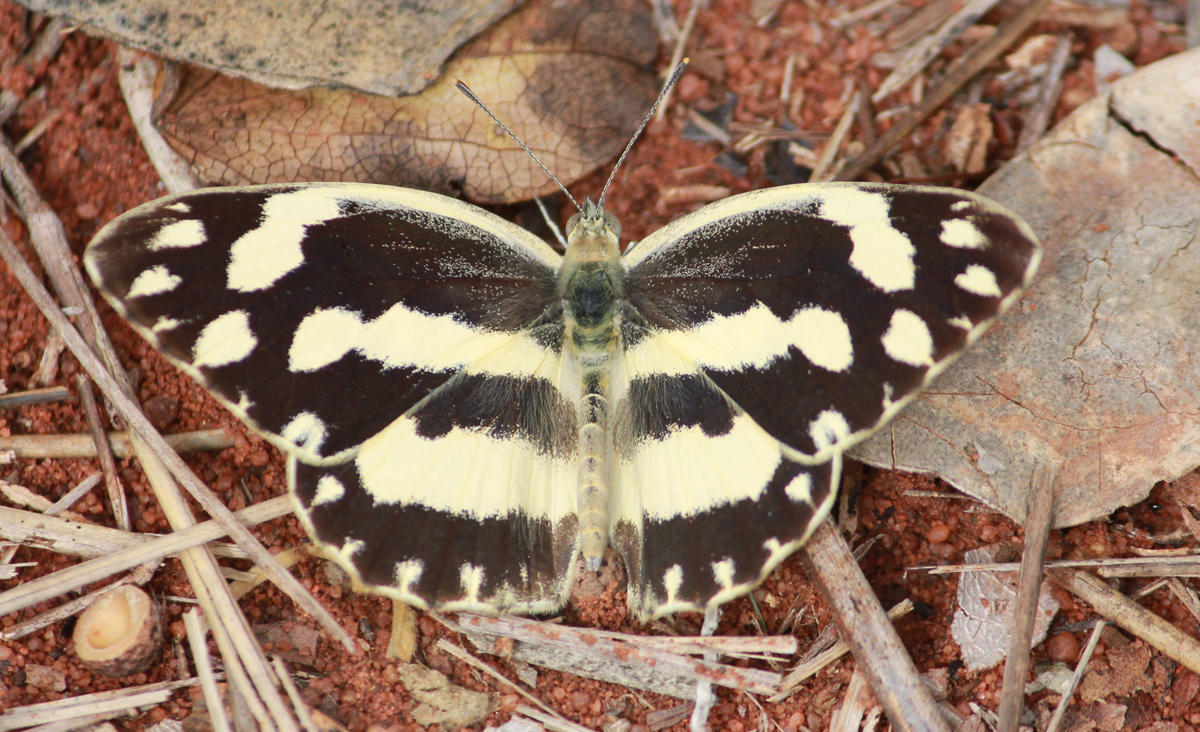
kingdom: Animalia
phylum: Arthropoda
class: Insecta
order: Lepidoptera
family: Pieridae
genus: Pinacopteryx
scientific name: Pinacopteryx eriphia
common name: Zebra white
